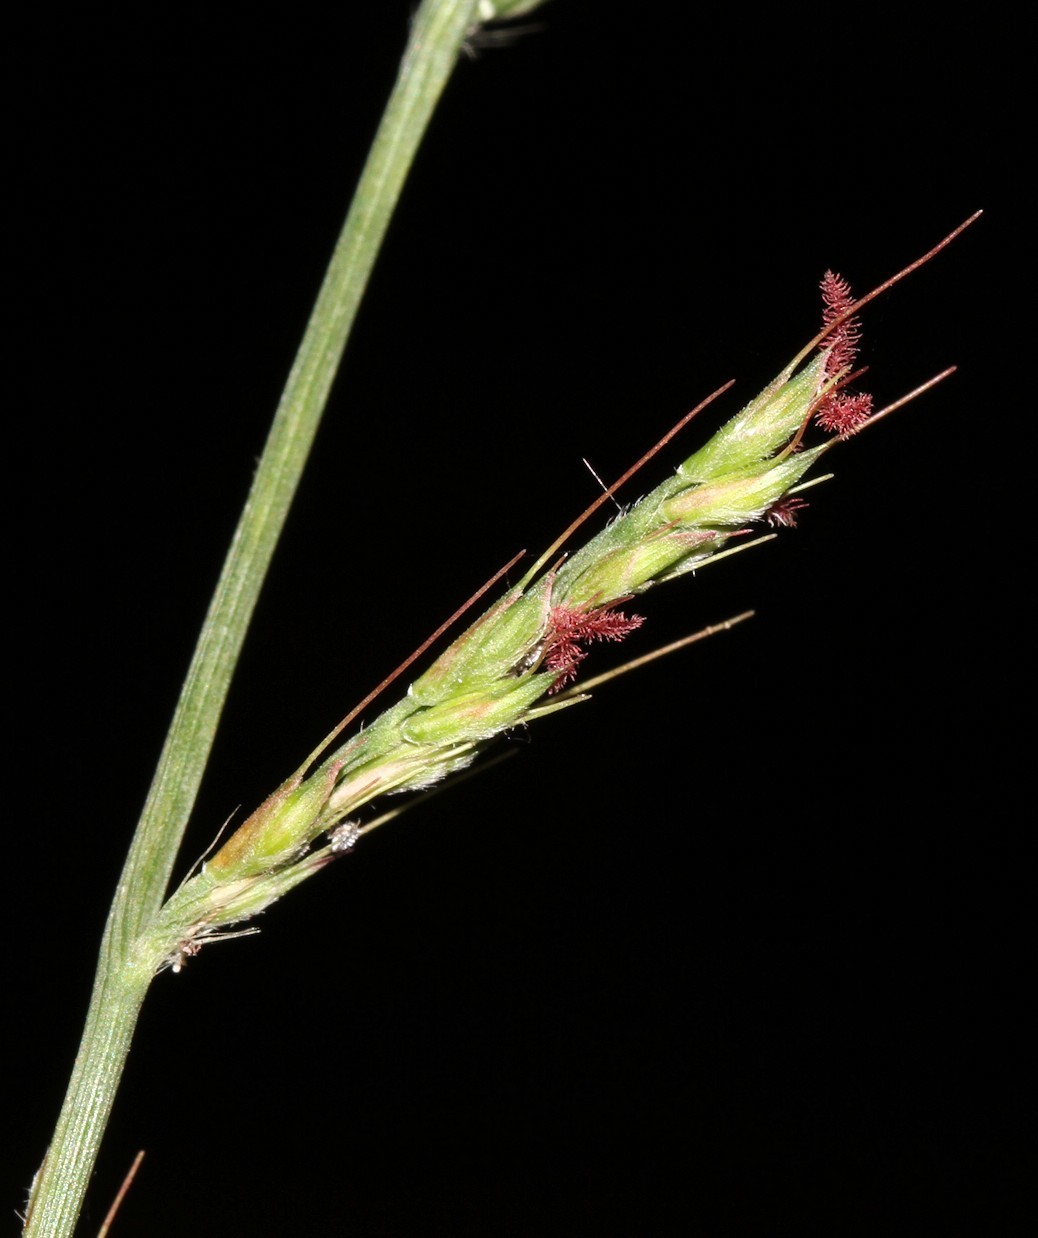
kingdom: Plantae
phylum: Tracheophyta
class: Liliopsida
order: Poales
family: Poaceae
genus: Oplismenus
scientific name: Oplismenus hirtellus
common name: Basketgrass
